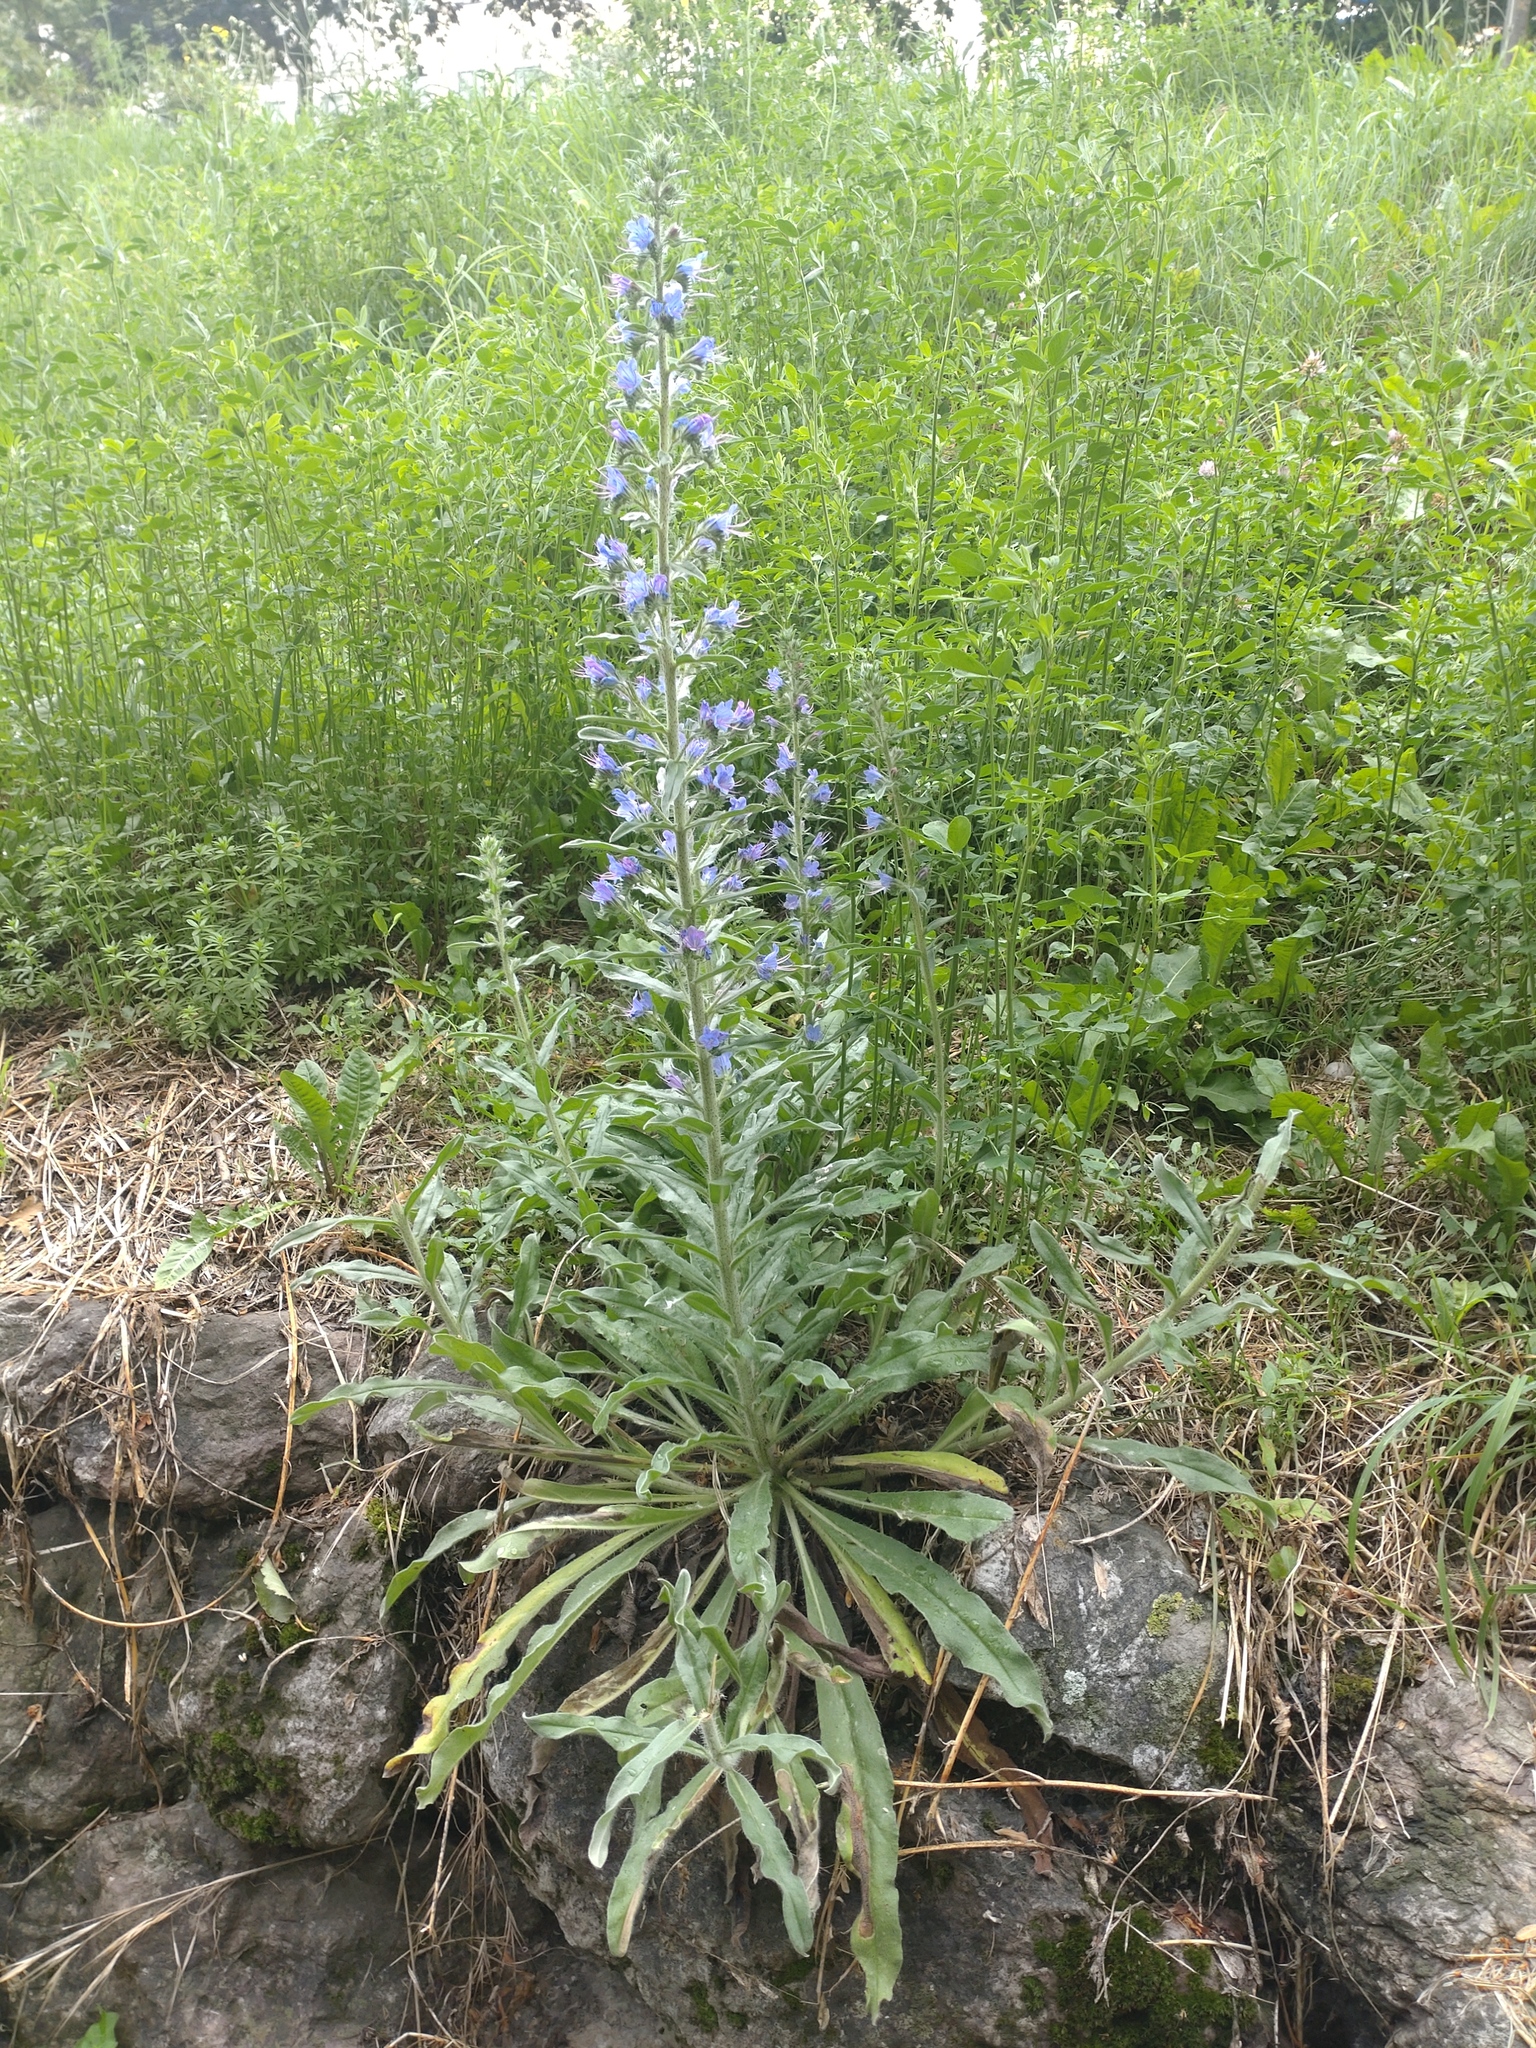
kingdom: Plantae
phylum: Tracheophyta
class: Magnoliopsida
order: Boraginales
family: Boraginaceae
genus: Echium
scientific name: Echium vulgare
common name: Common viper's bugloss
